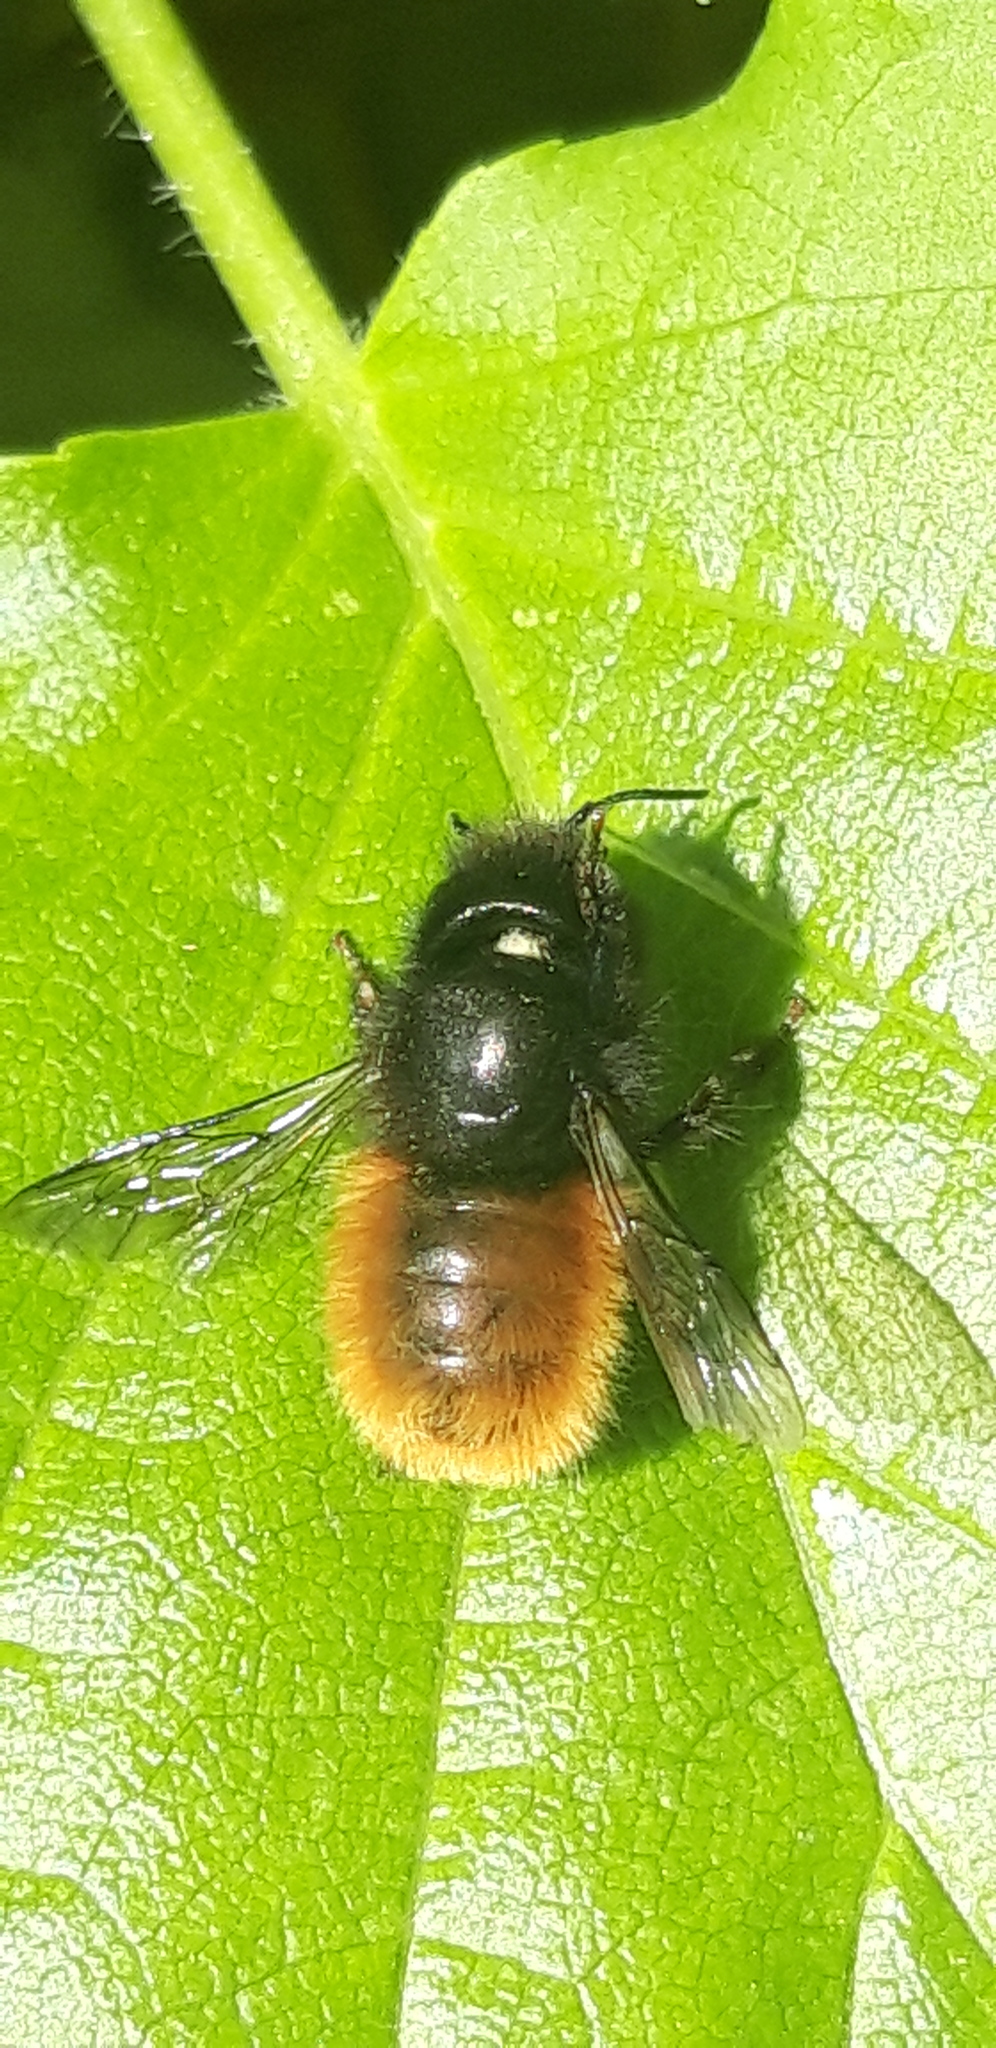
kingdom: Animalia
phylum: Arthropoda
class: Insecta
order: Hymenoptera
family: Megachilidae
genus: Osmia
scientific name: Osmia cornuta
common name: Mason bee
